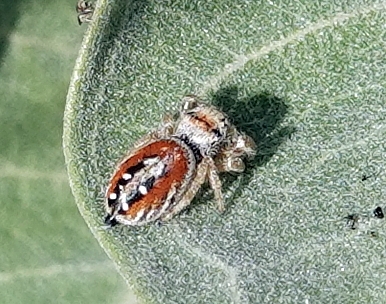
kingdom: Animalia
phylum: Arthropoda
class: Arachnida
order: Araneae
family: Salticidae
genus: Phidippus
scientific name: Phidippus apacheanus
